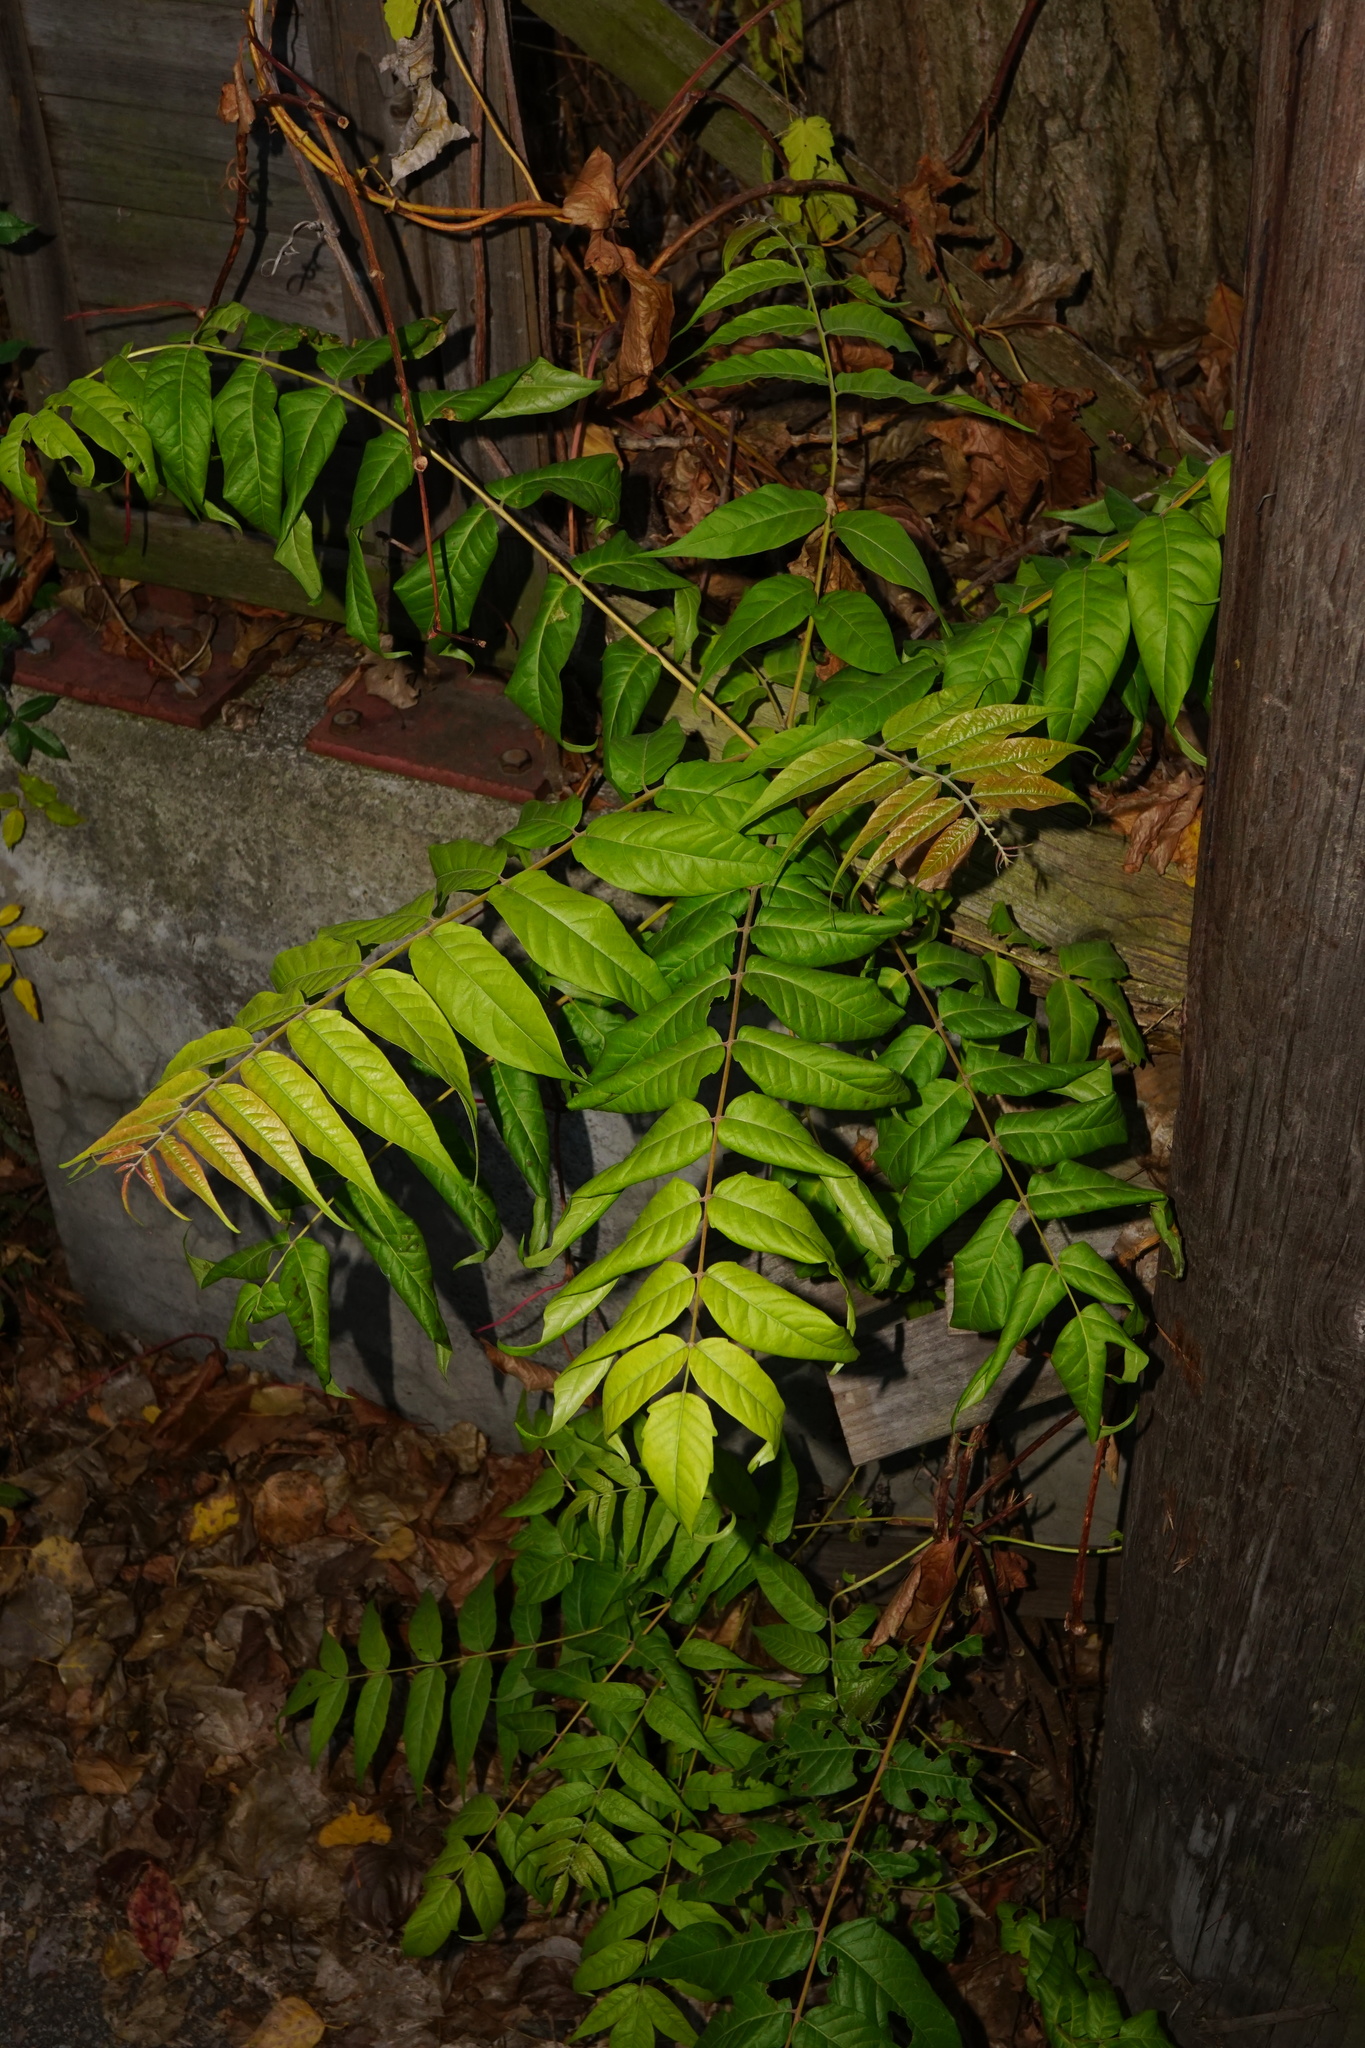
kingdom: Plantae
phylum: Tracheophyta
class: Magnoliopsida
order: Sapindales
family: Simaroubaceae
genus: Ailanthus
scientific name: Ailanthus altissima
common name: Tree-of-heaven
